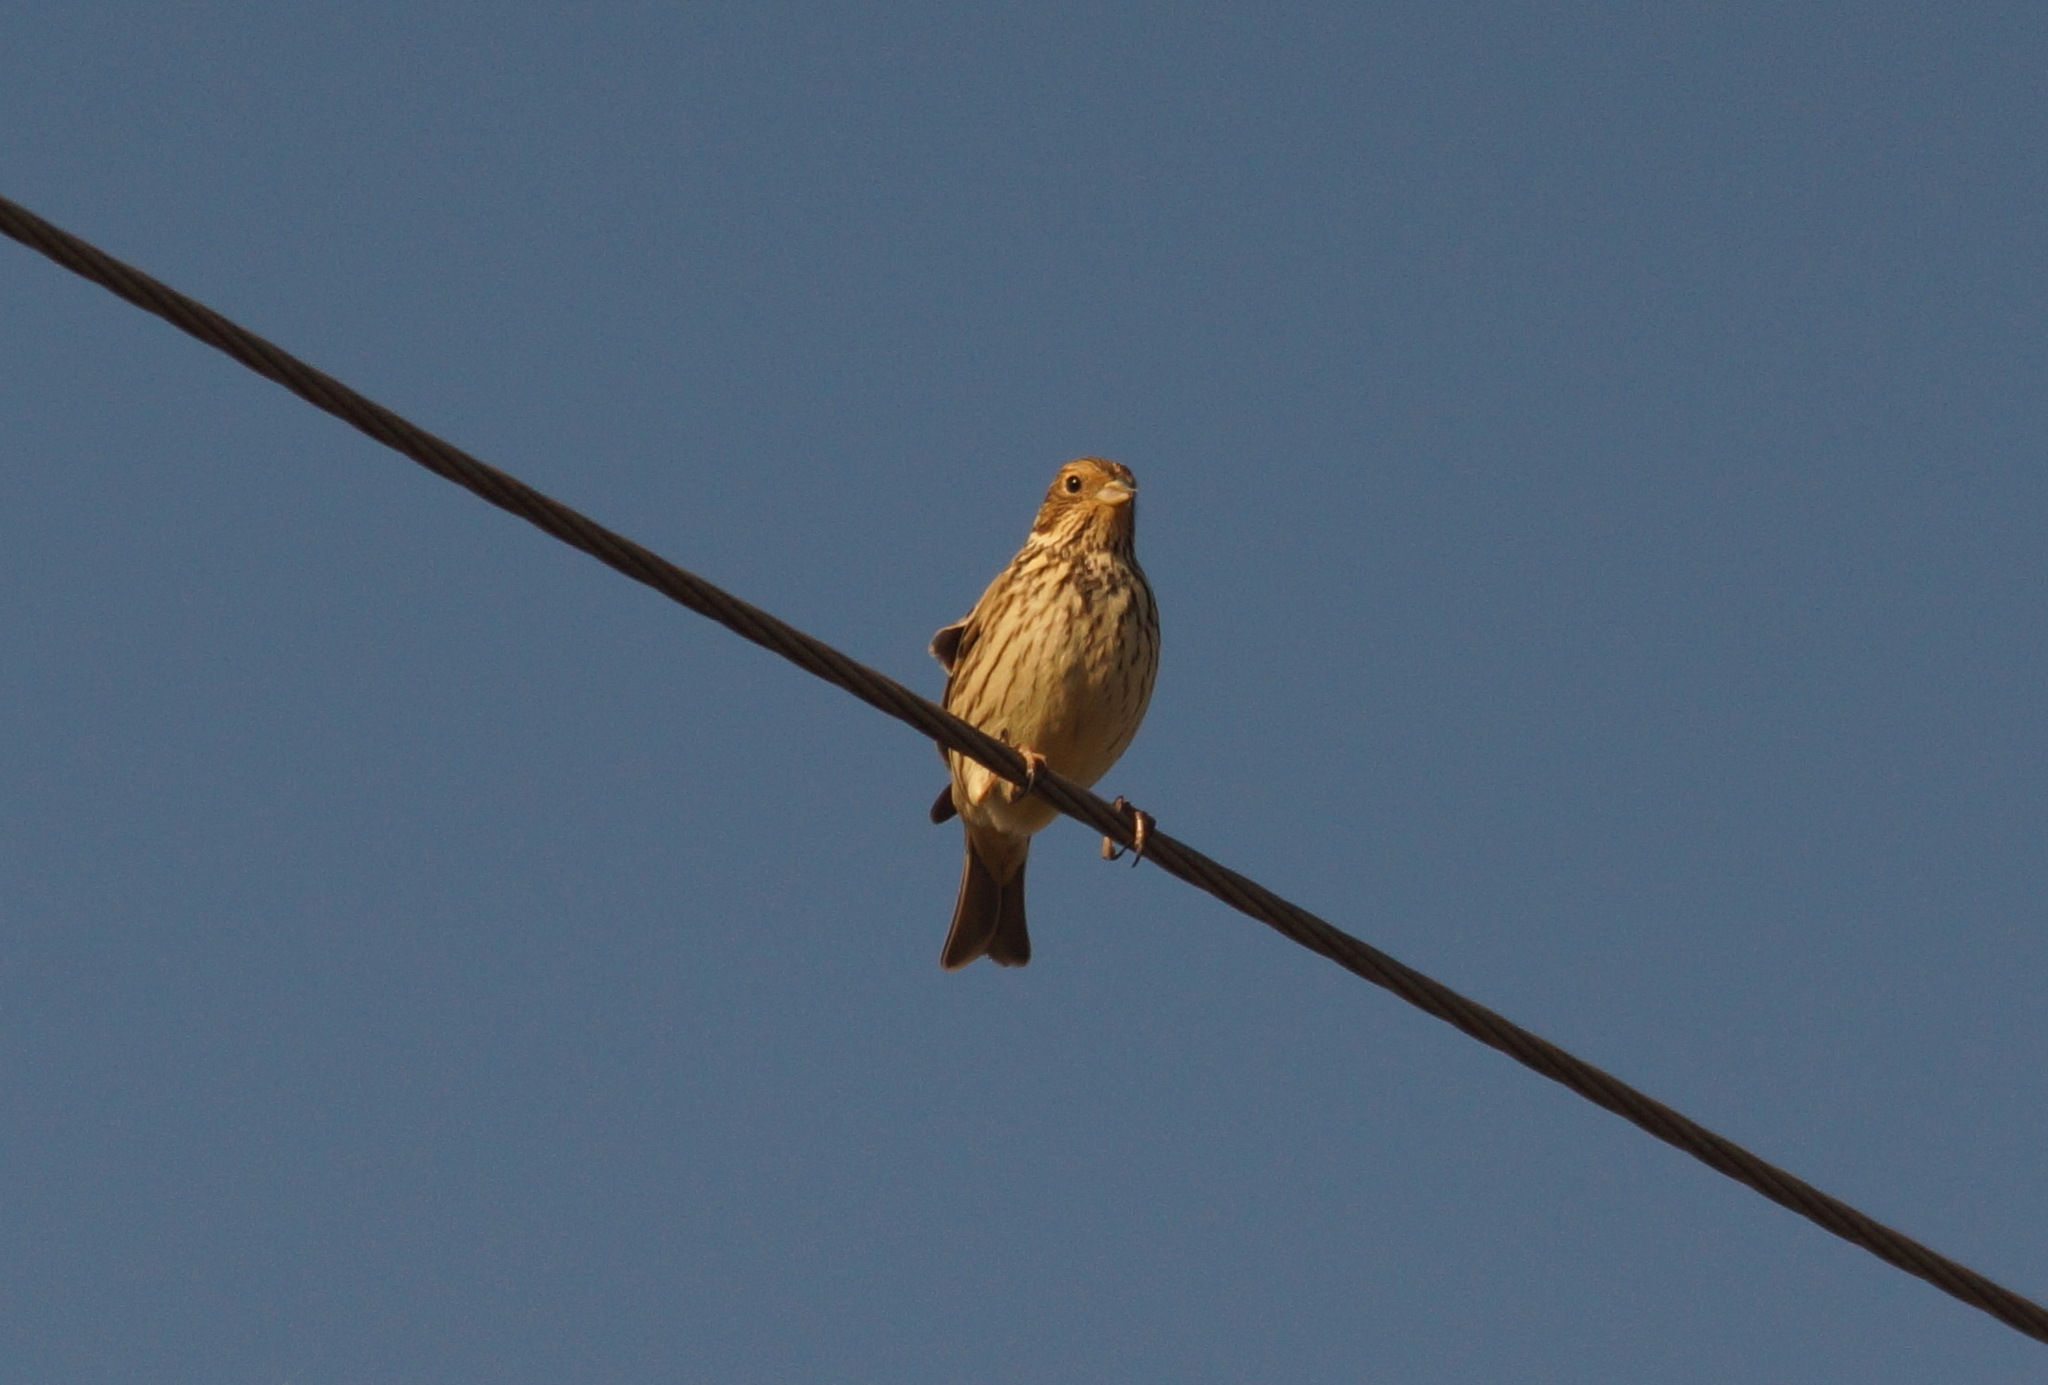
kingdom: Animalia
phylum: Chordata
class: Aves
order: Passeriformes
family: Emberizidae
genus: Emberiza
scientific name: Emberiza calandra
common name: Corn bunting
